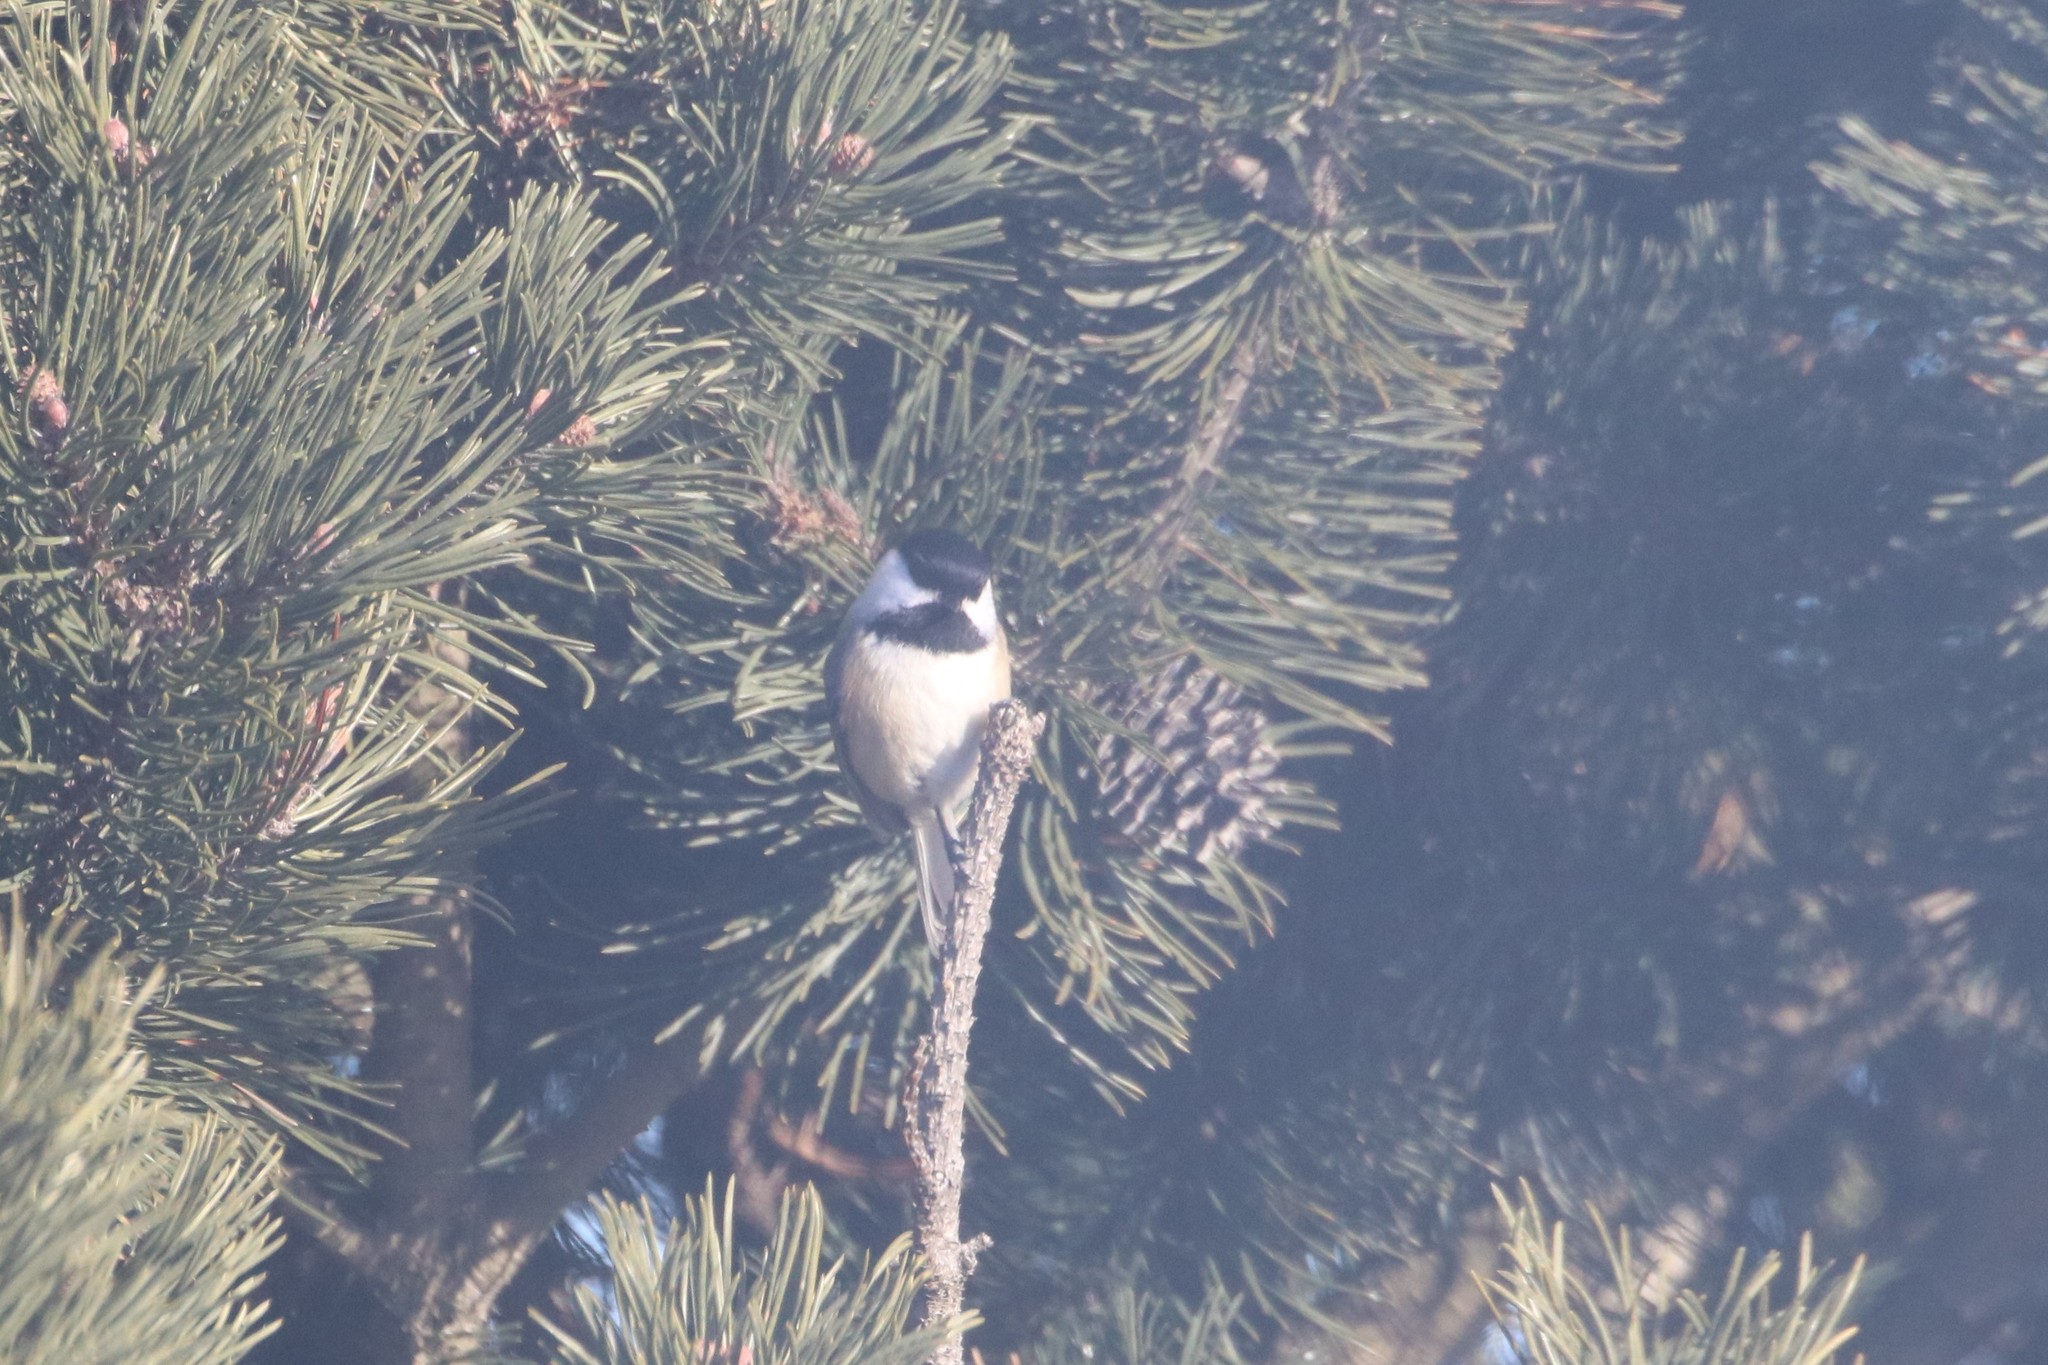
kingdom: Animalia
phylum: Chordata
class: Aves
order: Passeriformes
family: Paridae
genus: Poecile
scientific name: Poecile atricapillus
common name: Black-capped chickadee
